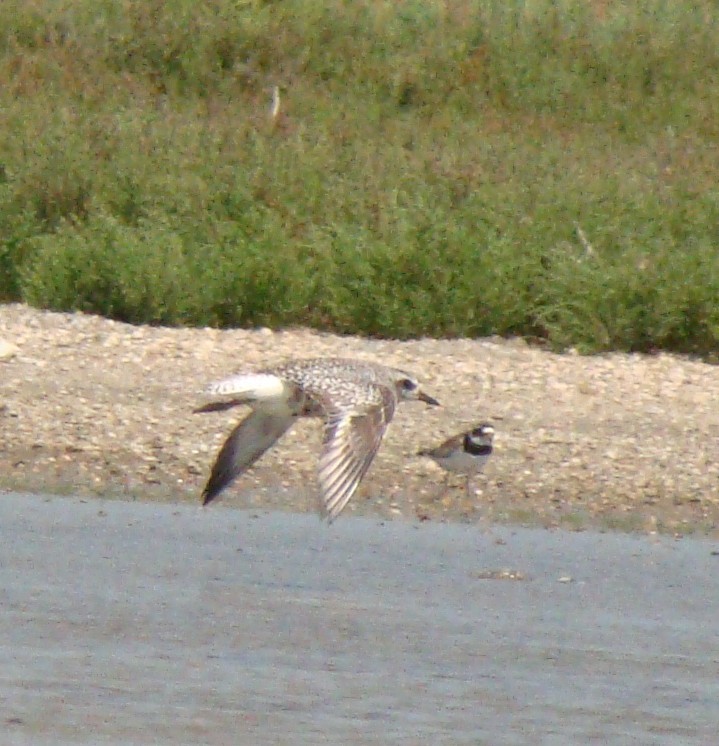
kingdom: Animalia
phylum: Chordata
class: Aves
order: Charadriiformes
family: Charadriidae
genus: Pluvialis
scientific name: Pluvialis squatarola
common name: Grey plover
